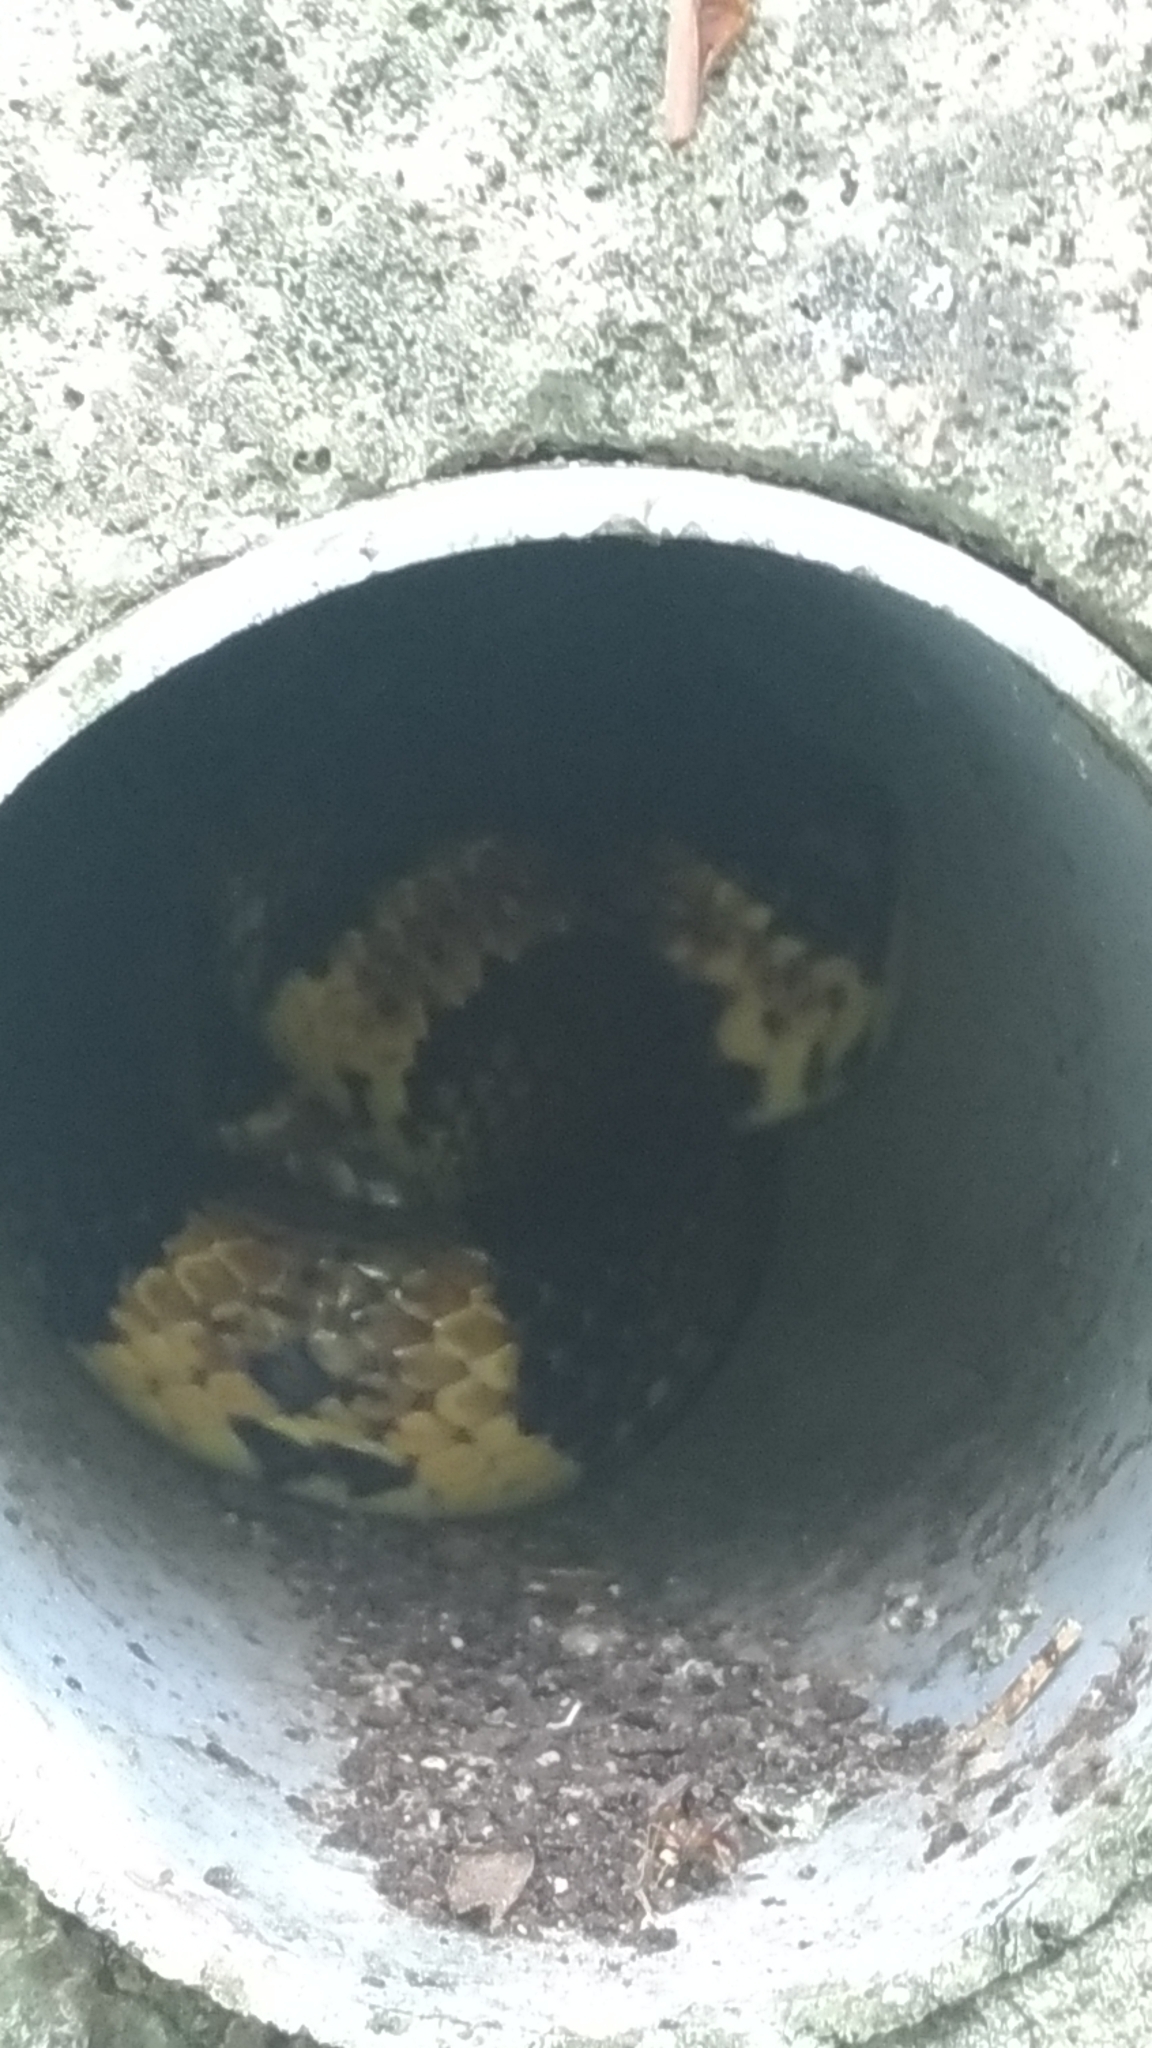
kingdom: Animalia
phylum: Chordata
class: Squamata
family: Colubridae
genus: Lycodon
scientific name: Lycodon semicarinatus
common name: Loo-choo big-tooth snake
